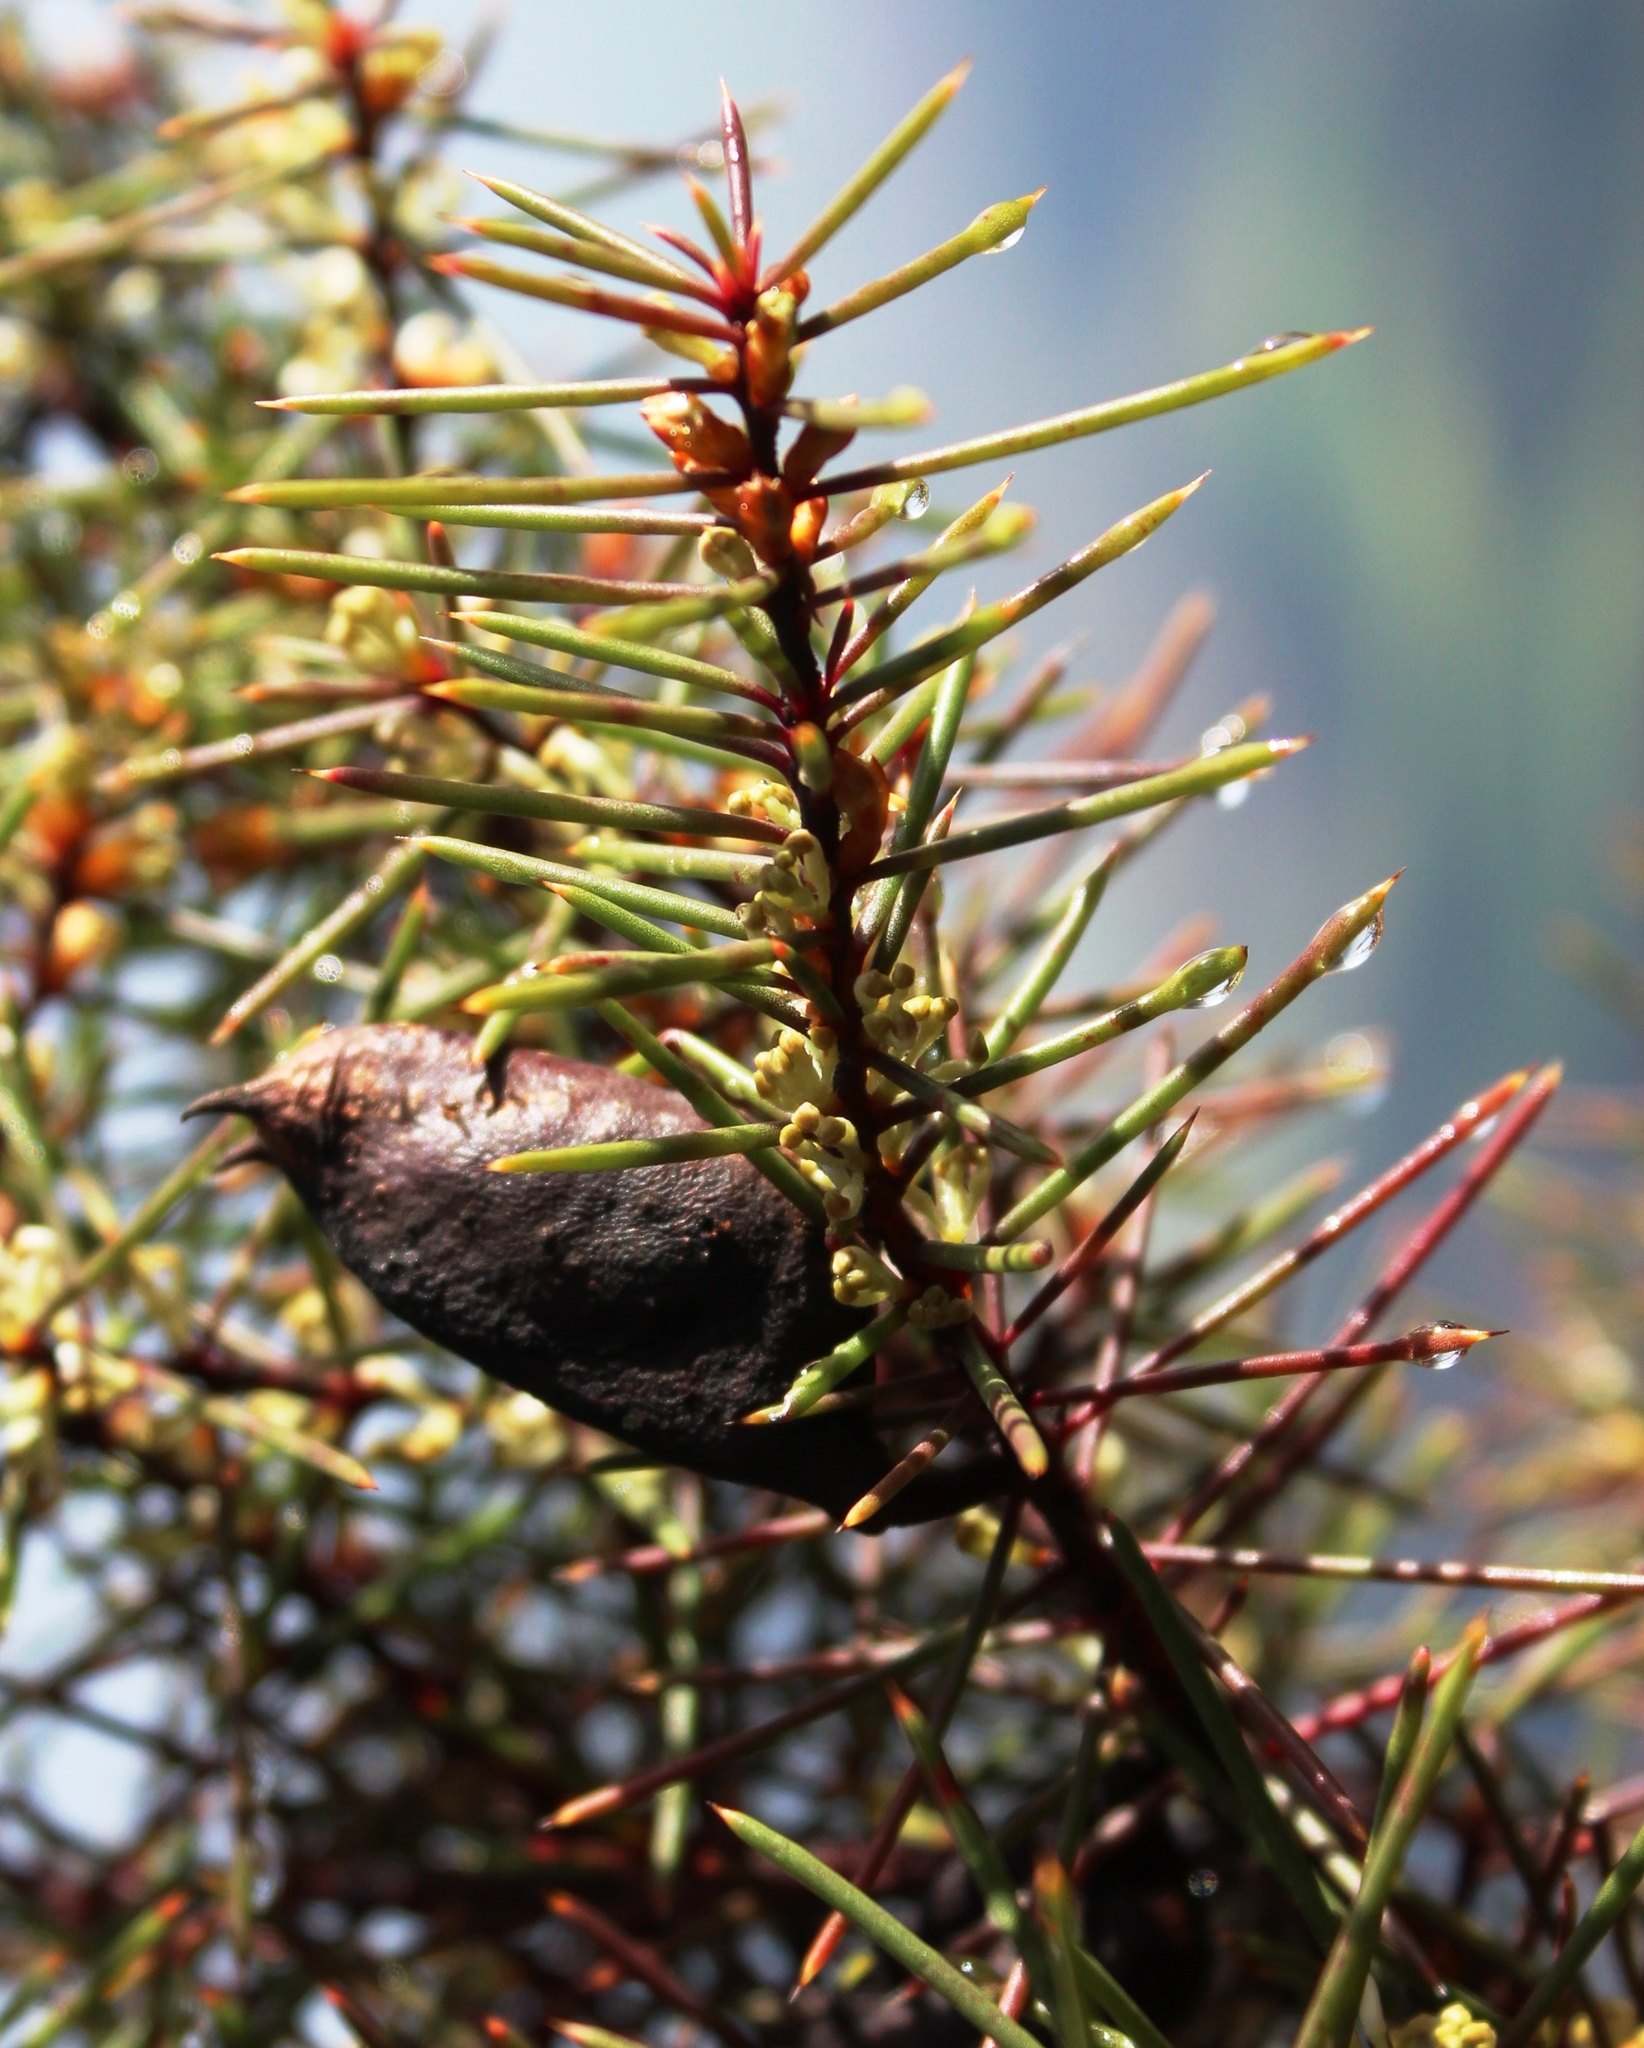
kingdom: Plantae
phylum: Tracheophyta
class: Magnoliopsida
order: Proteales
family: Proteaceae
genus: Hakea
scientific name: Hakea sericea
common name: Needle bush
